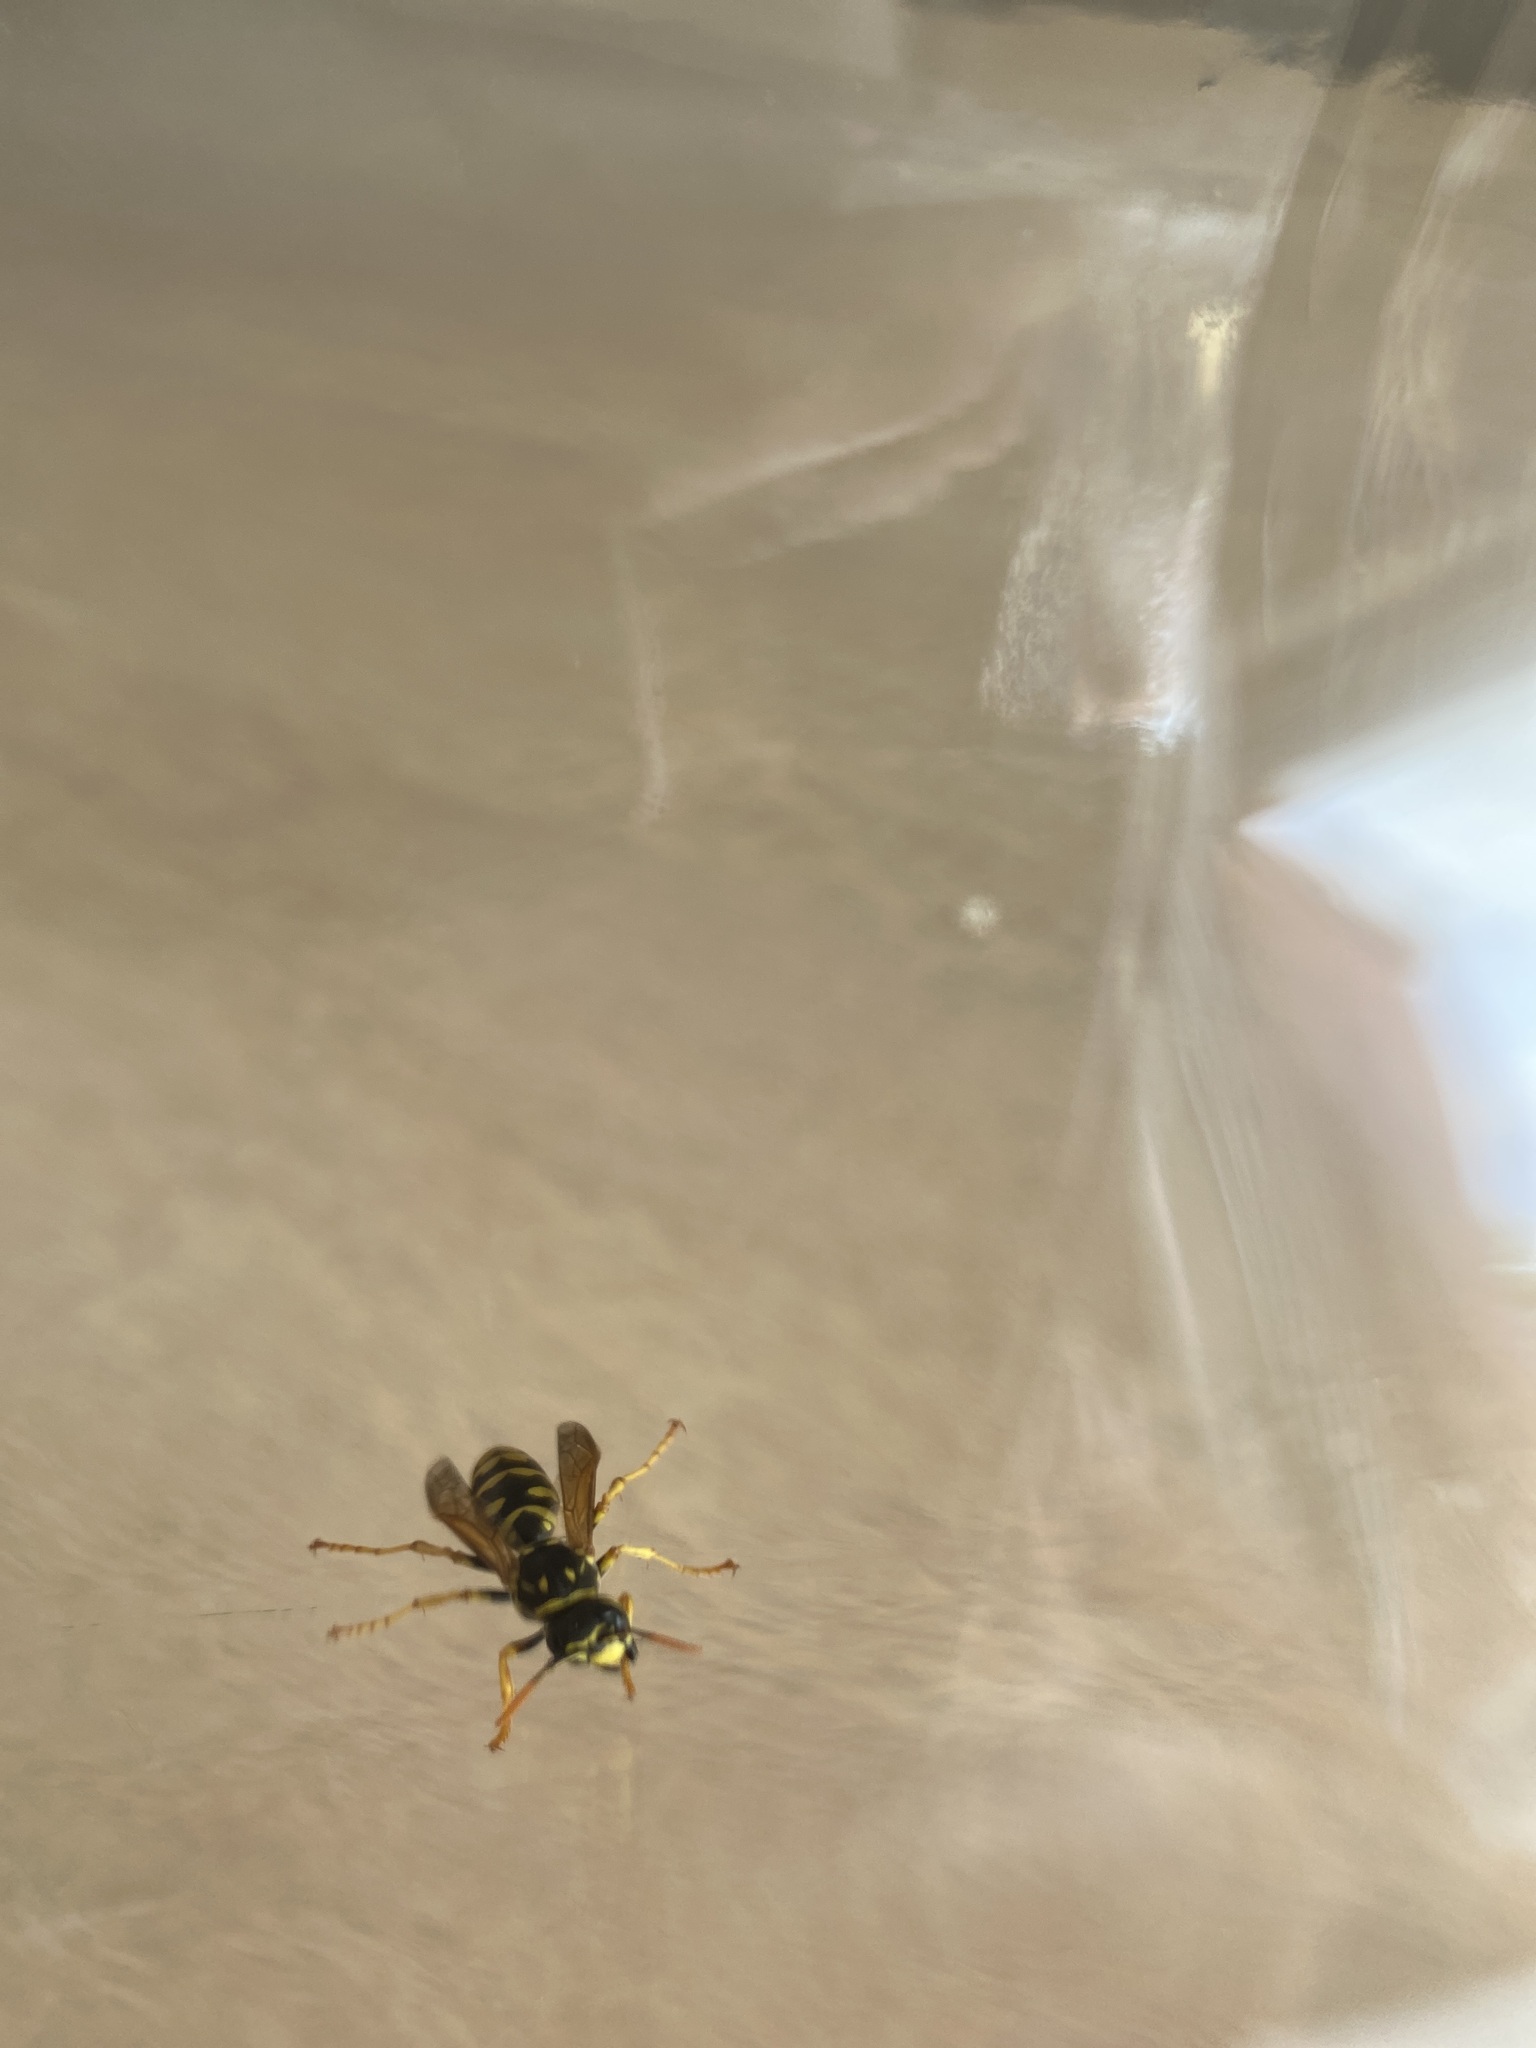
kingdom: Animalia
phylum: Arthropoda
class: Insecta
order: Hymenoptera
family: Eumenidae
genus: Polistes
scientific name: Polistes dominula
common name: Paper wasp
